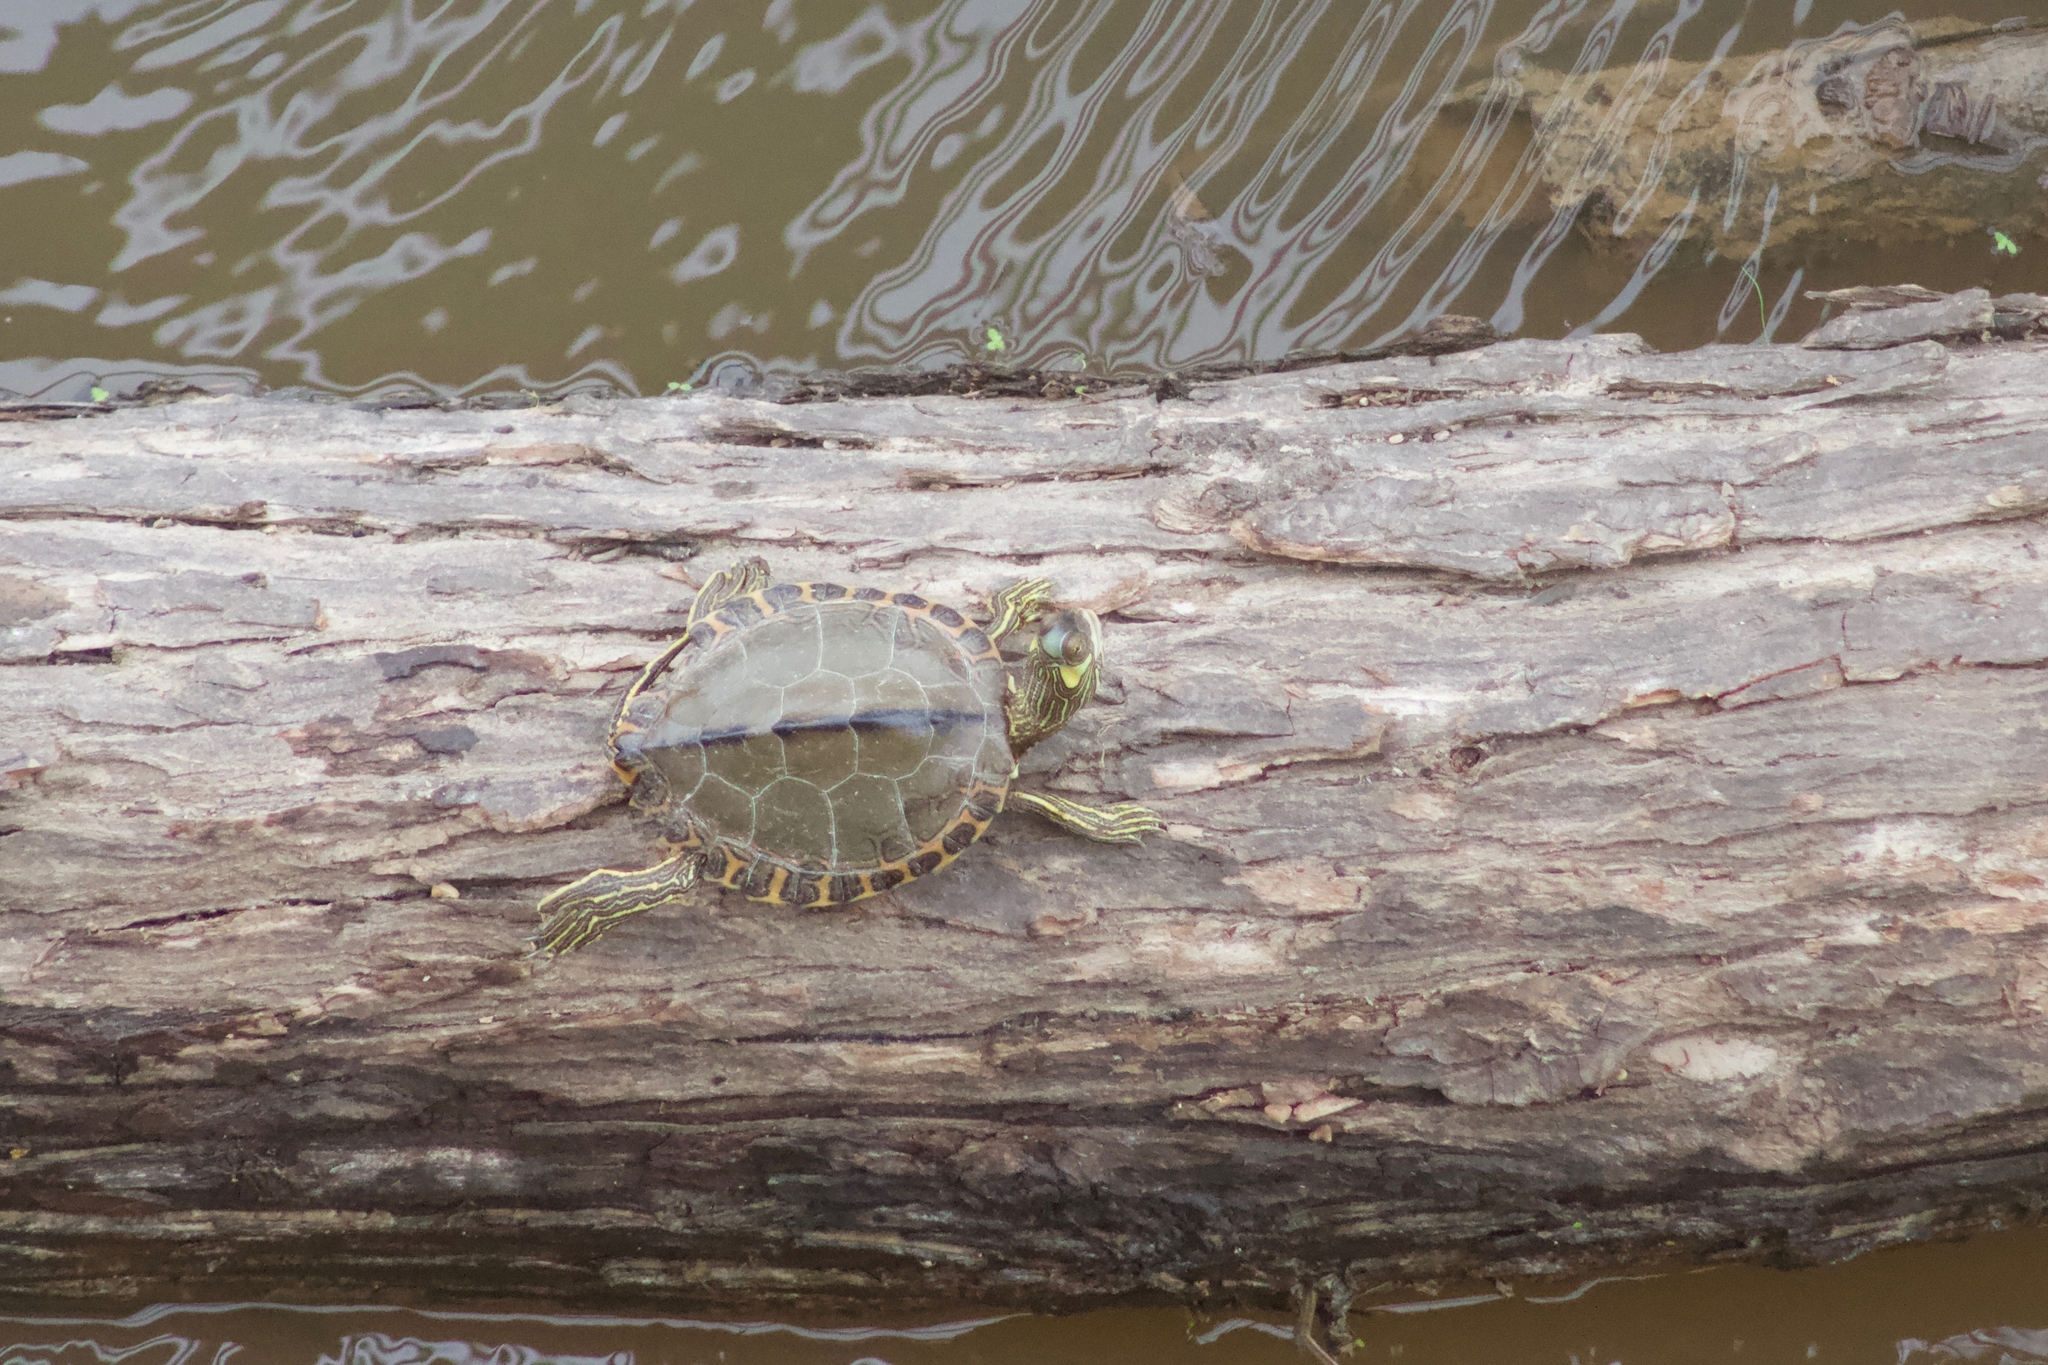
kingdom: Animalia
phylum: Chordata
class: Testudines
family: Emydidae
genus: Graptemys
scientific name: Graptemys gibbonsi
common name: Pascagoula map turtle
